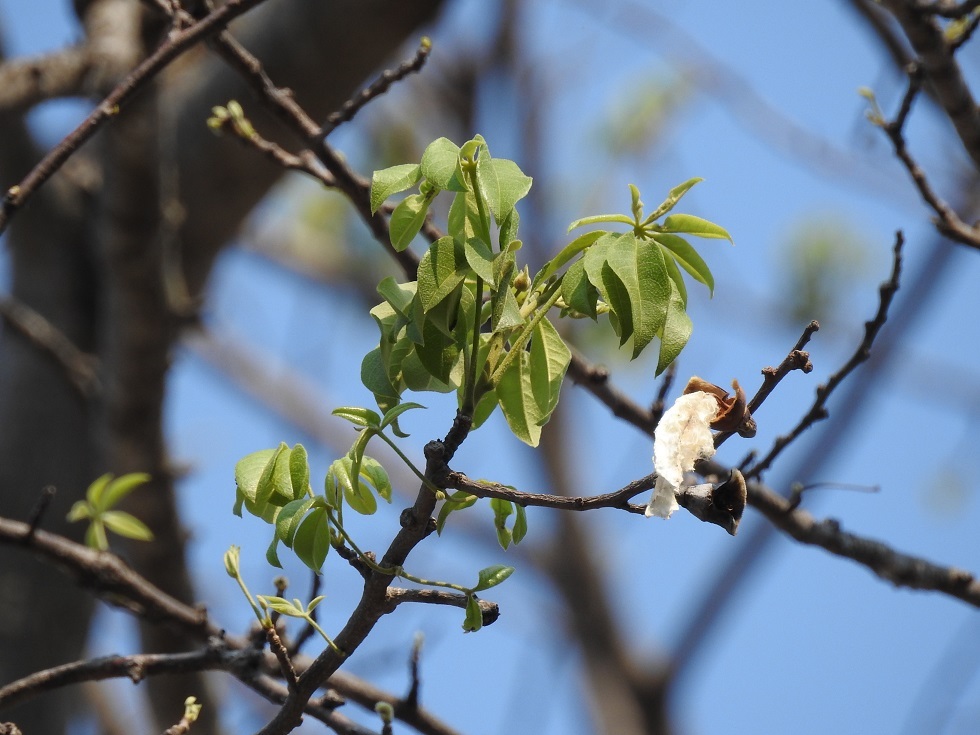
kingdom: Plantae
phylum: Tracheophyta
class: Magnoliopsida
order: Malvales
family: Malvaceae
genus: Ceiba
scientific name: Ceiba aesculifolia
